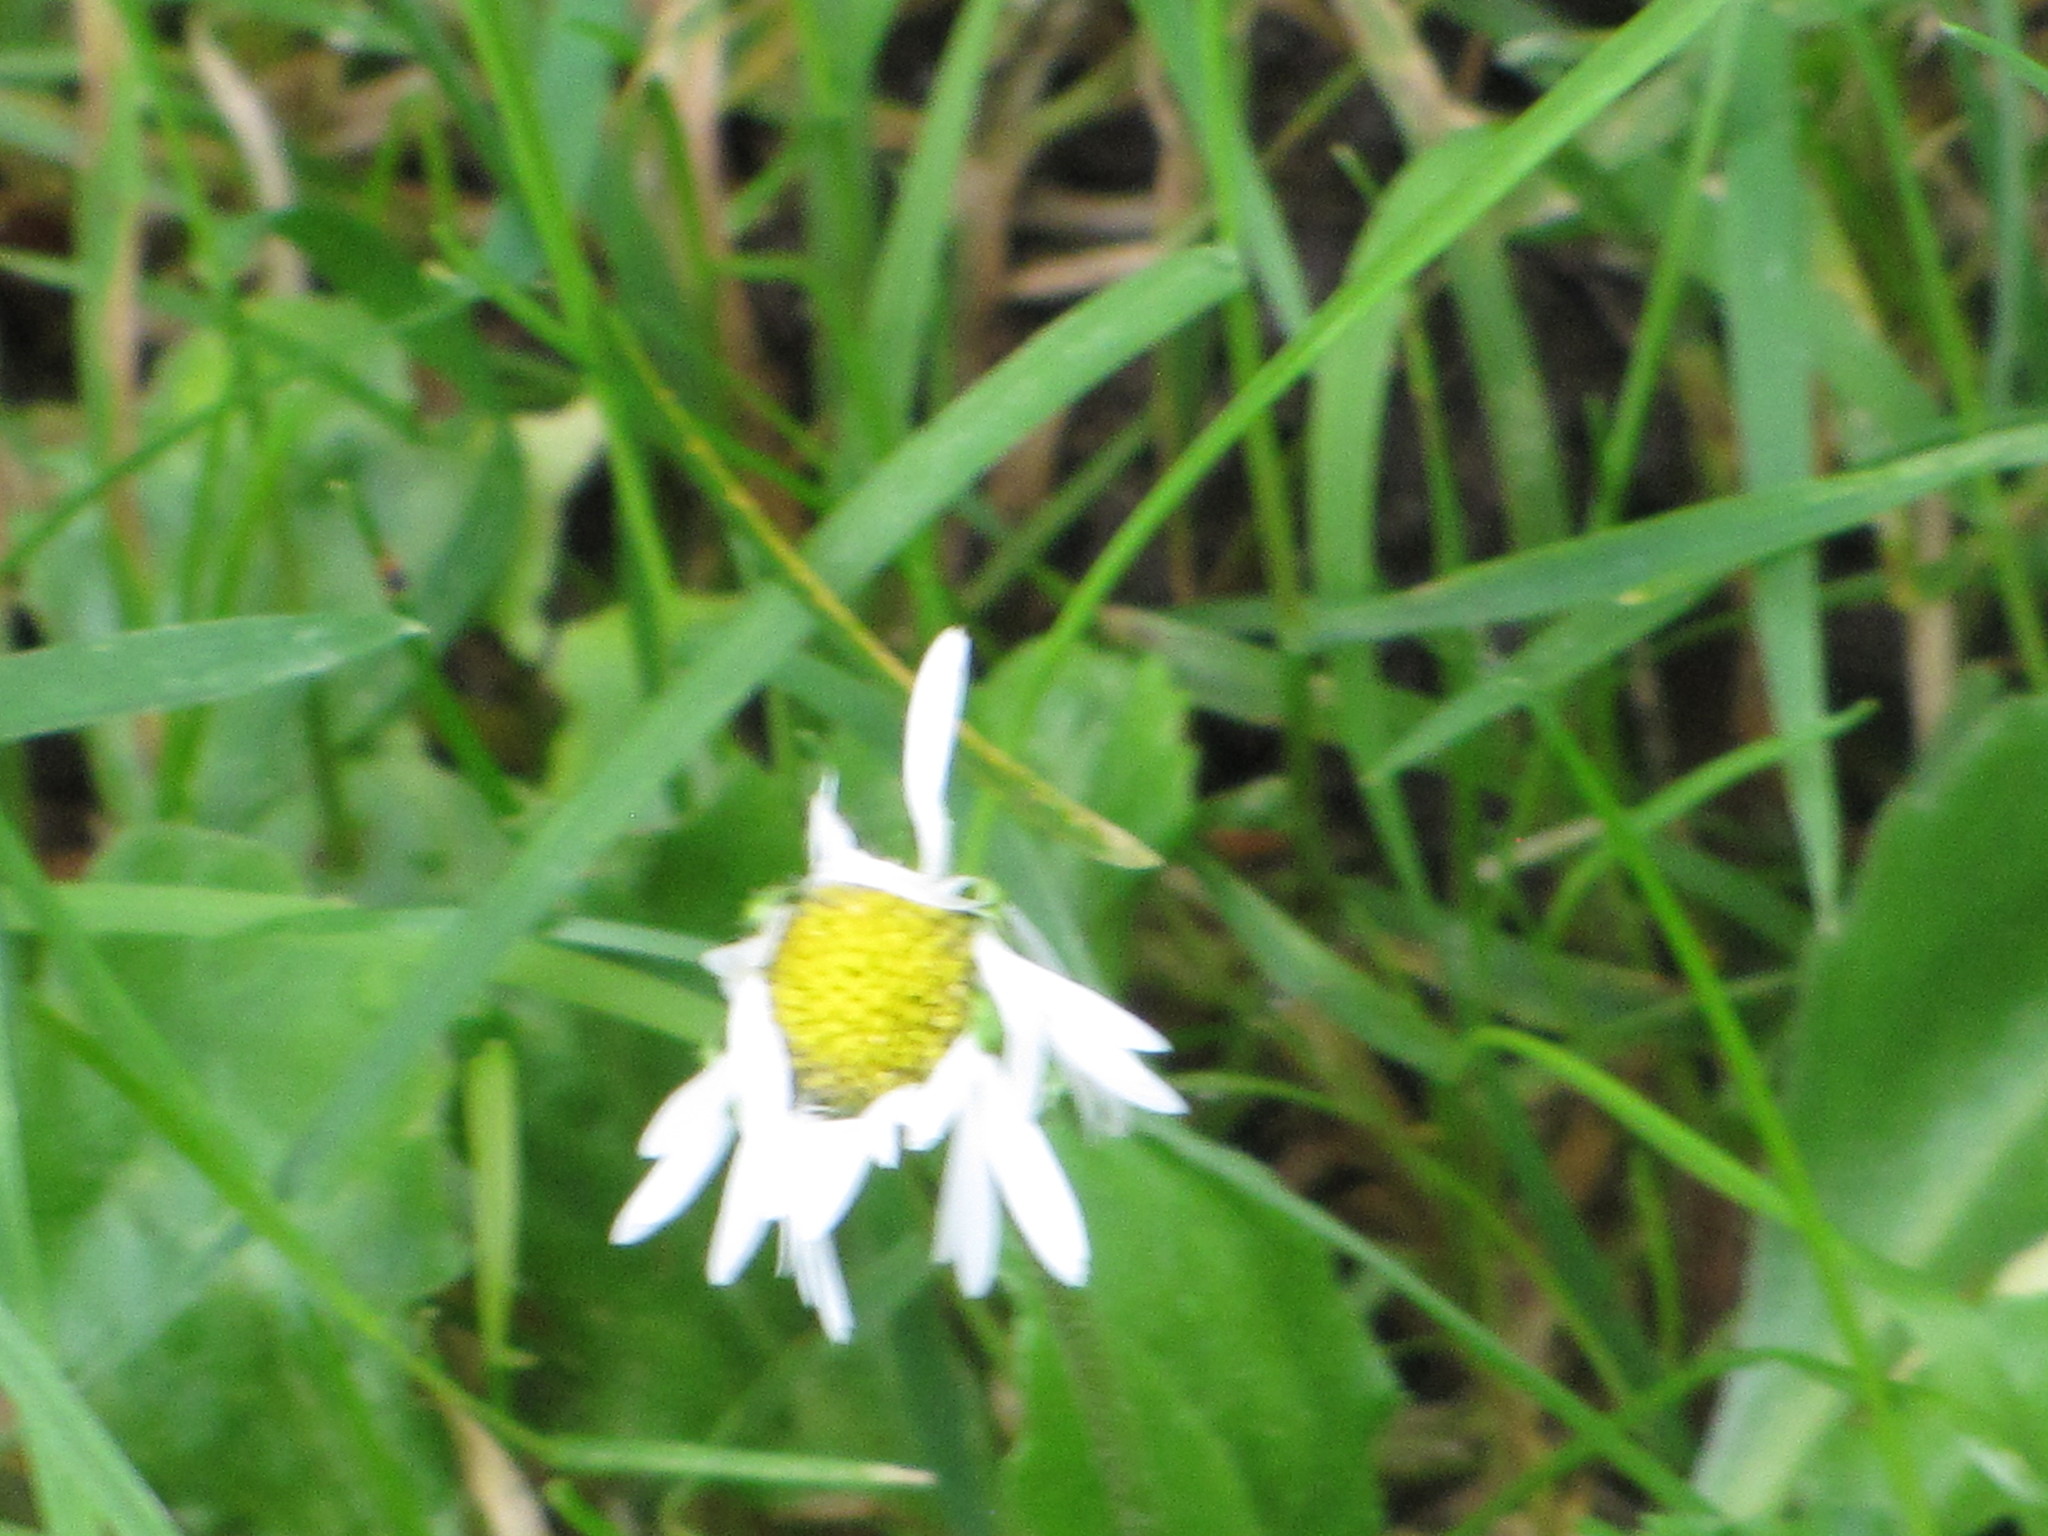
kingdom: Plantae
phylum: Tracheophyta
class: Magnoliopsida
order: Asterales
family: Asteraceae
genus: Bellis
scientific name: Bellis perennis
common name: Lawndaisy
